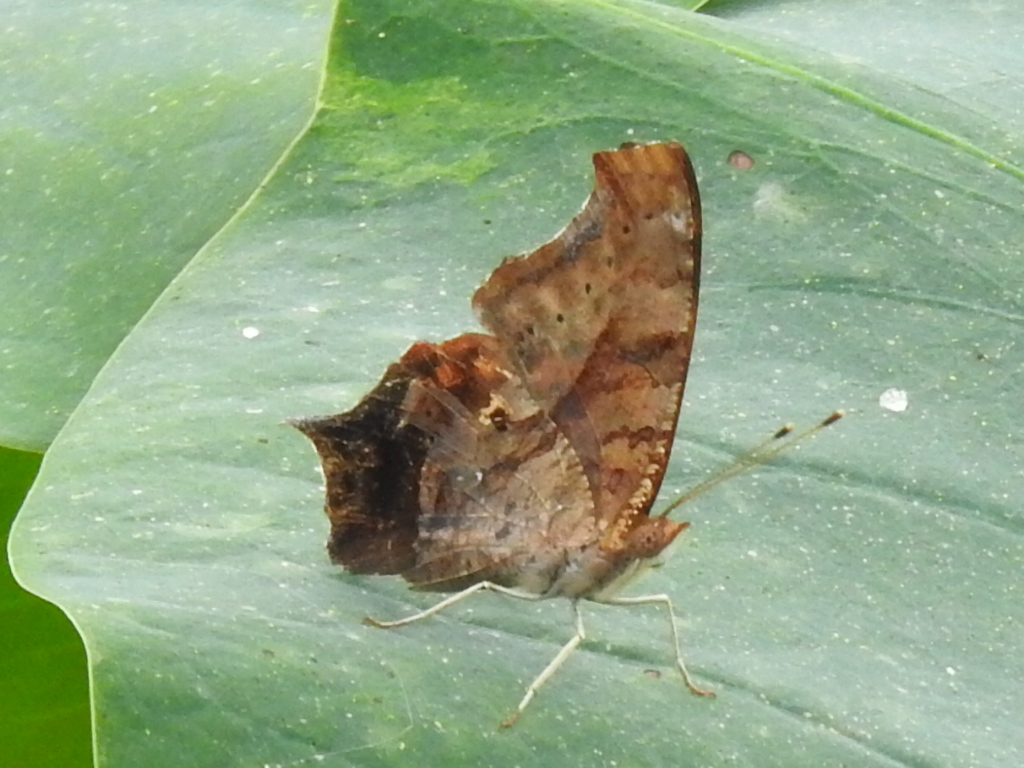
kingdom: Animalia
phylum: Arthropoda
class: Insecta
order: Lepidoptera
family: Nymphalidae
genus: Polygonia
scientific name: Polygonia interrogationis
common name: Question mark
